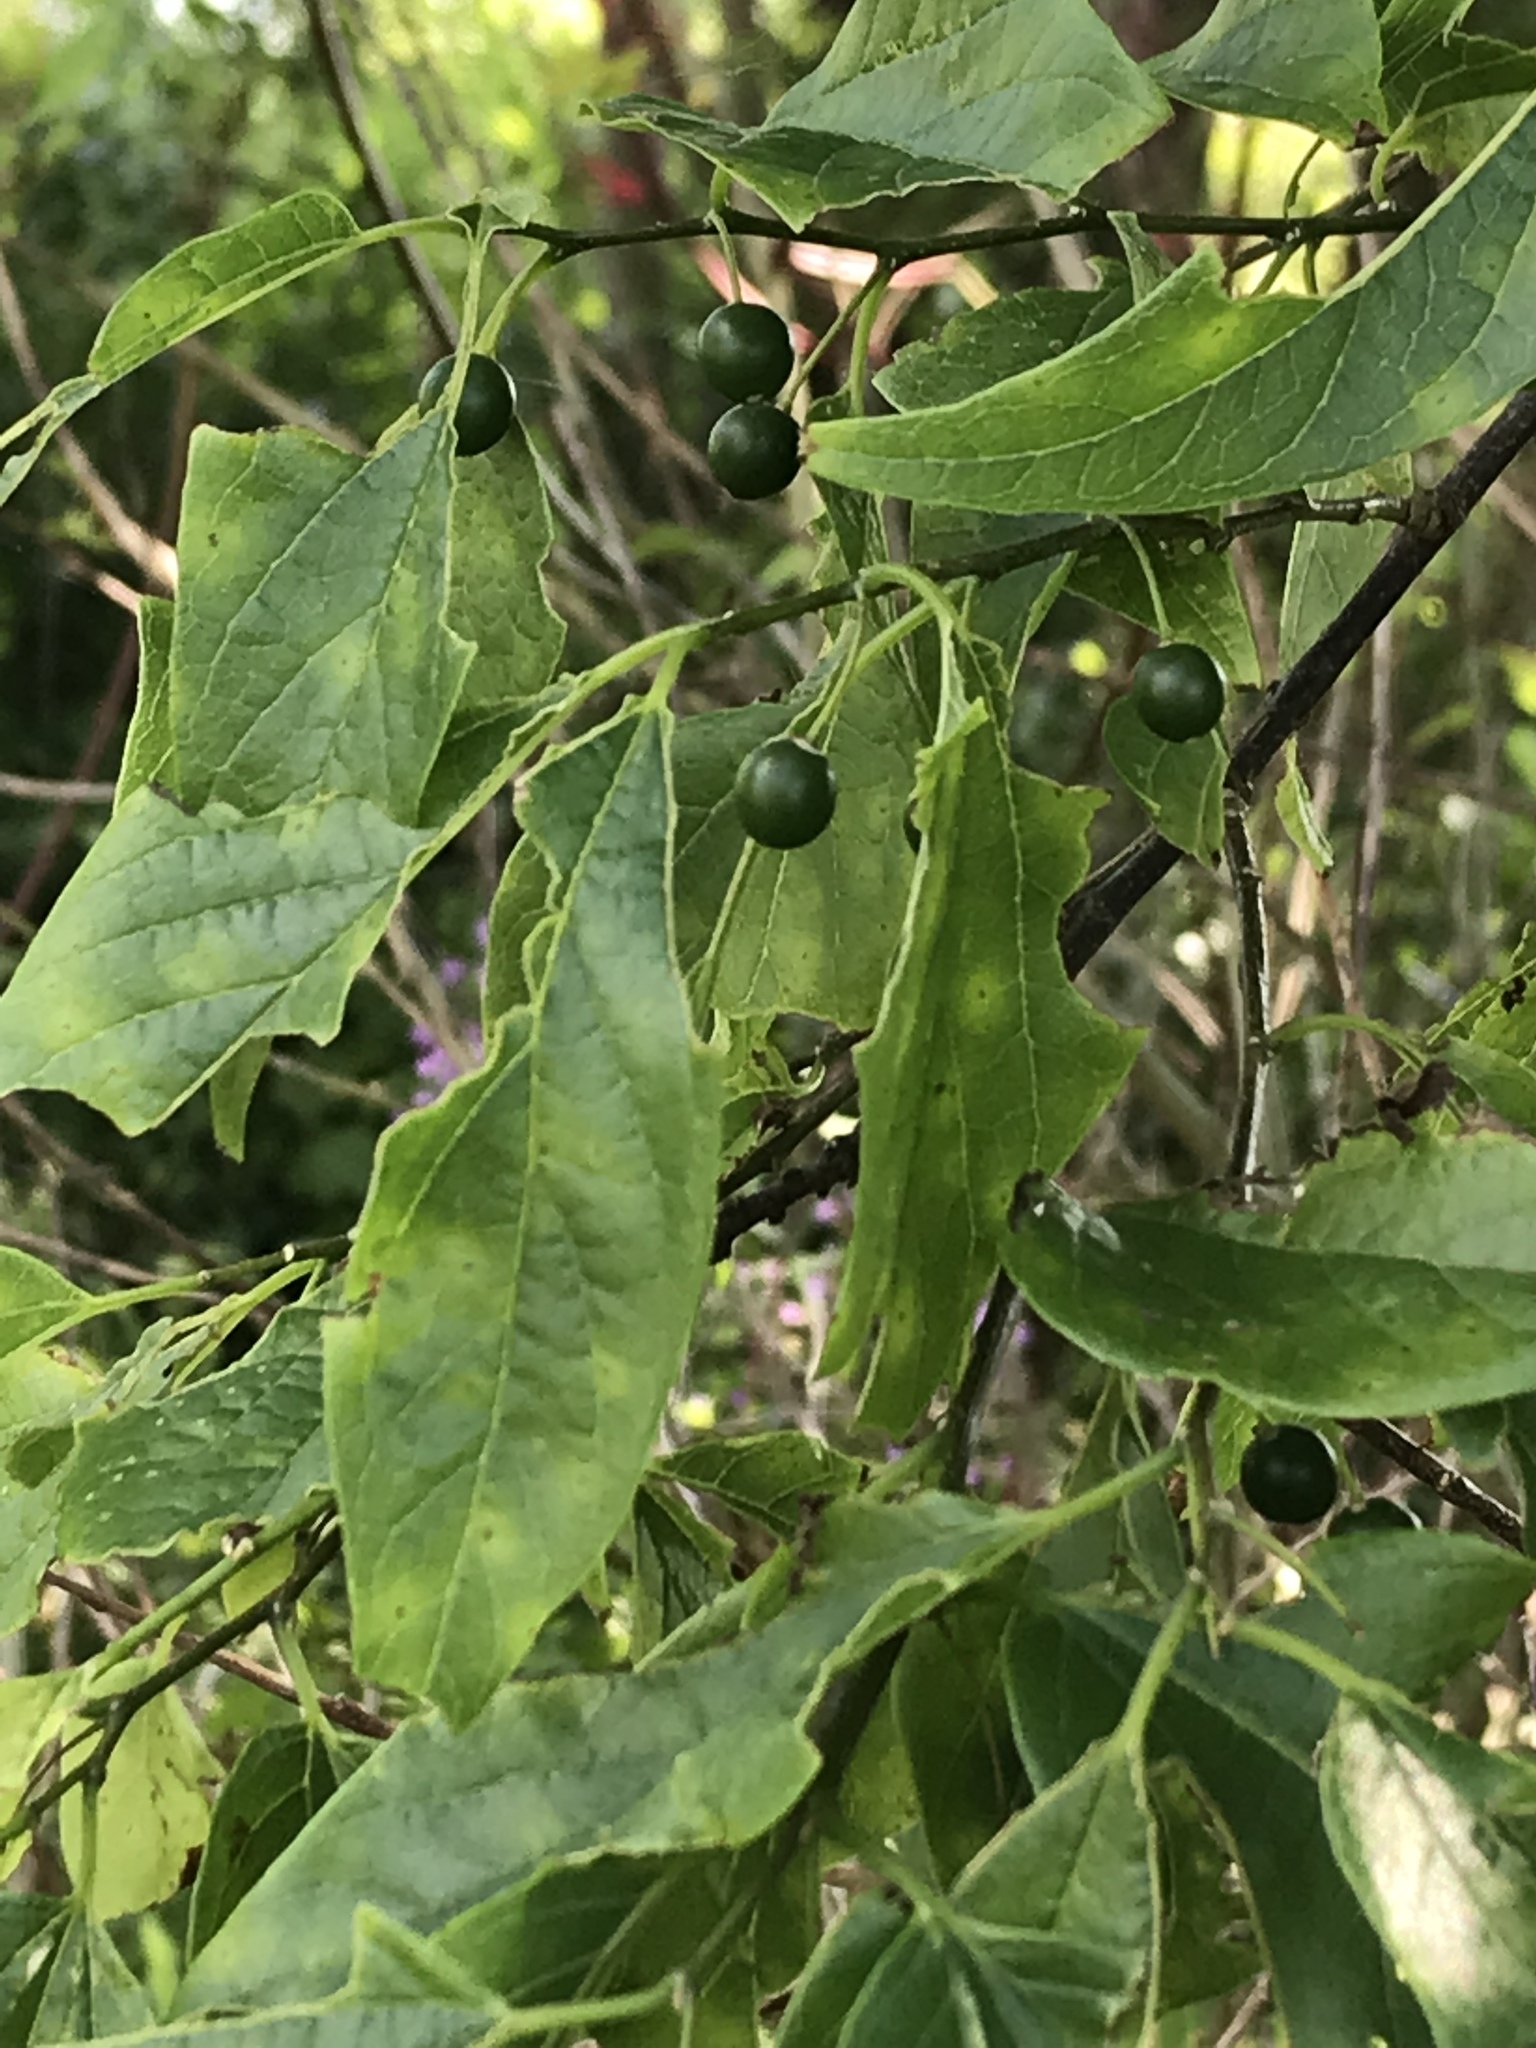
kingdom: Plantae
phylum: Tracheophyta
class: Magnoliopsida
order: Rosales
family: Cannabaceae
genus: Celtis
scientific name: Celtis laevigata
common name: Sugarberry
